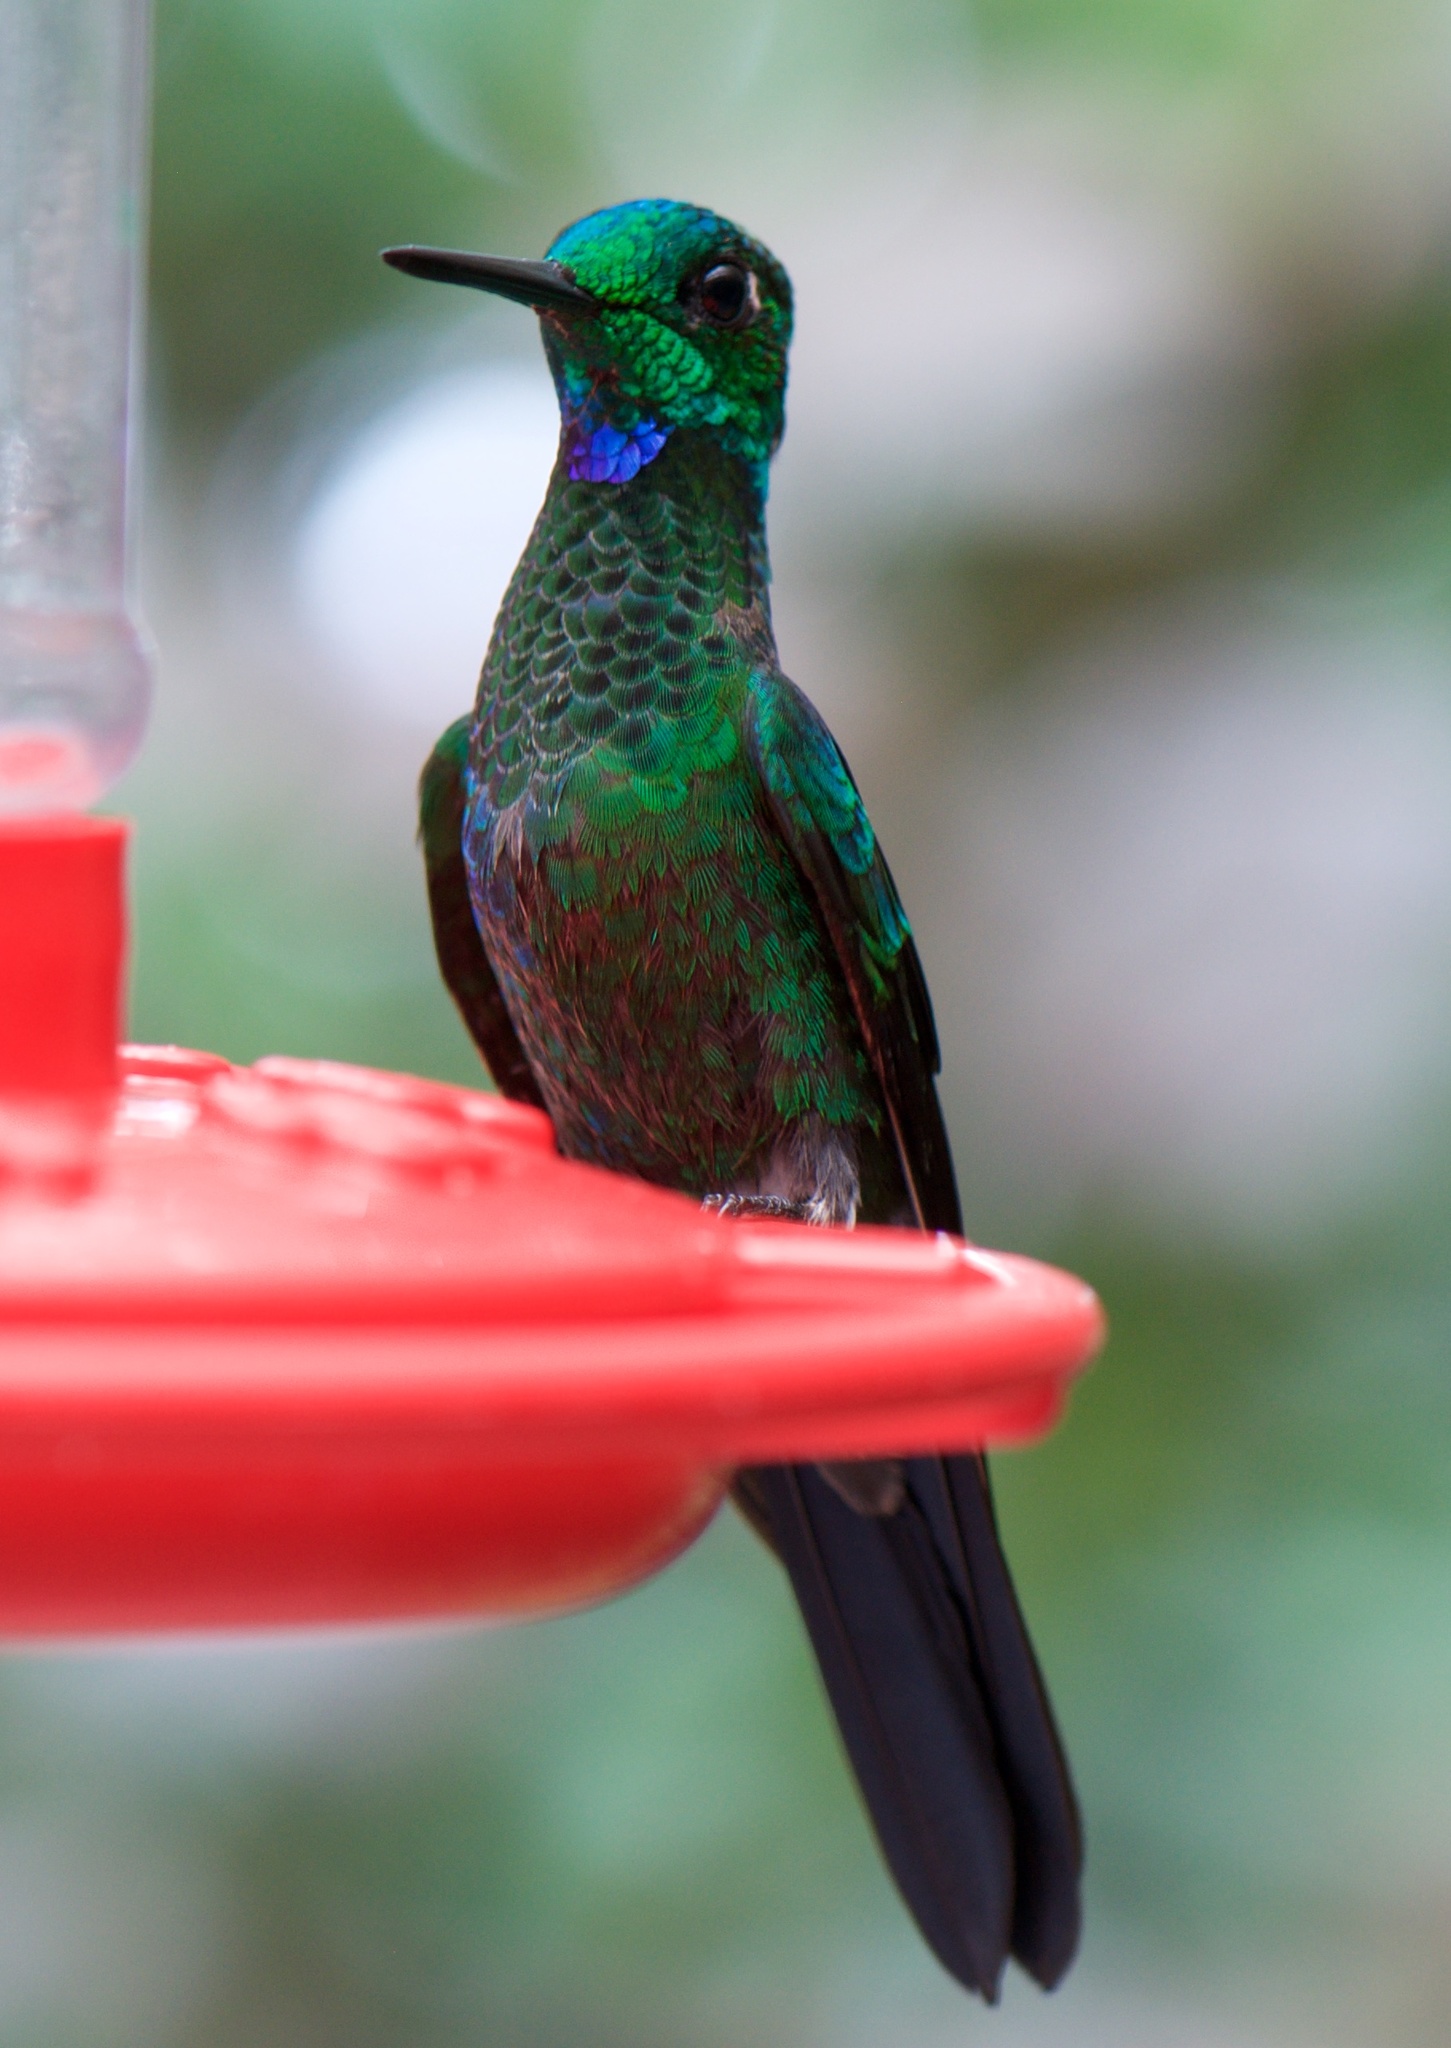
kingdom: Animalia
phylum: Chordata
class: Aves
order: Apodiformes
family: Trochilidae
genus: Heliodoxa
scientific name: Heliodoxa jacula
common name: Green-crowned brilliant
